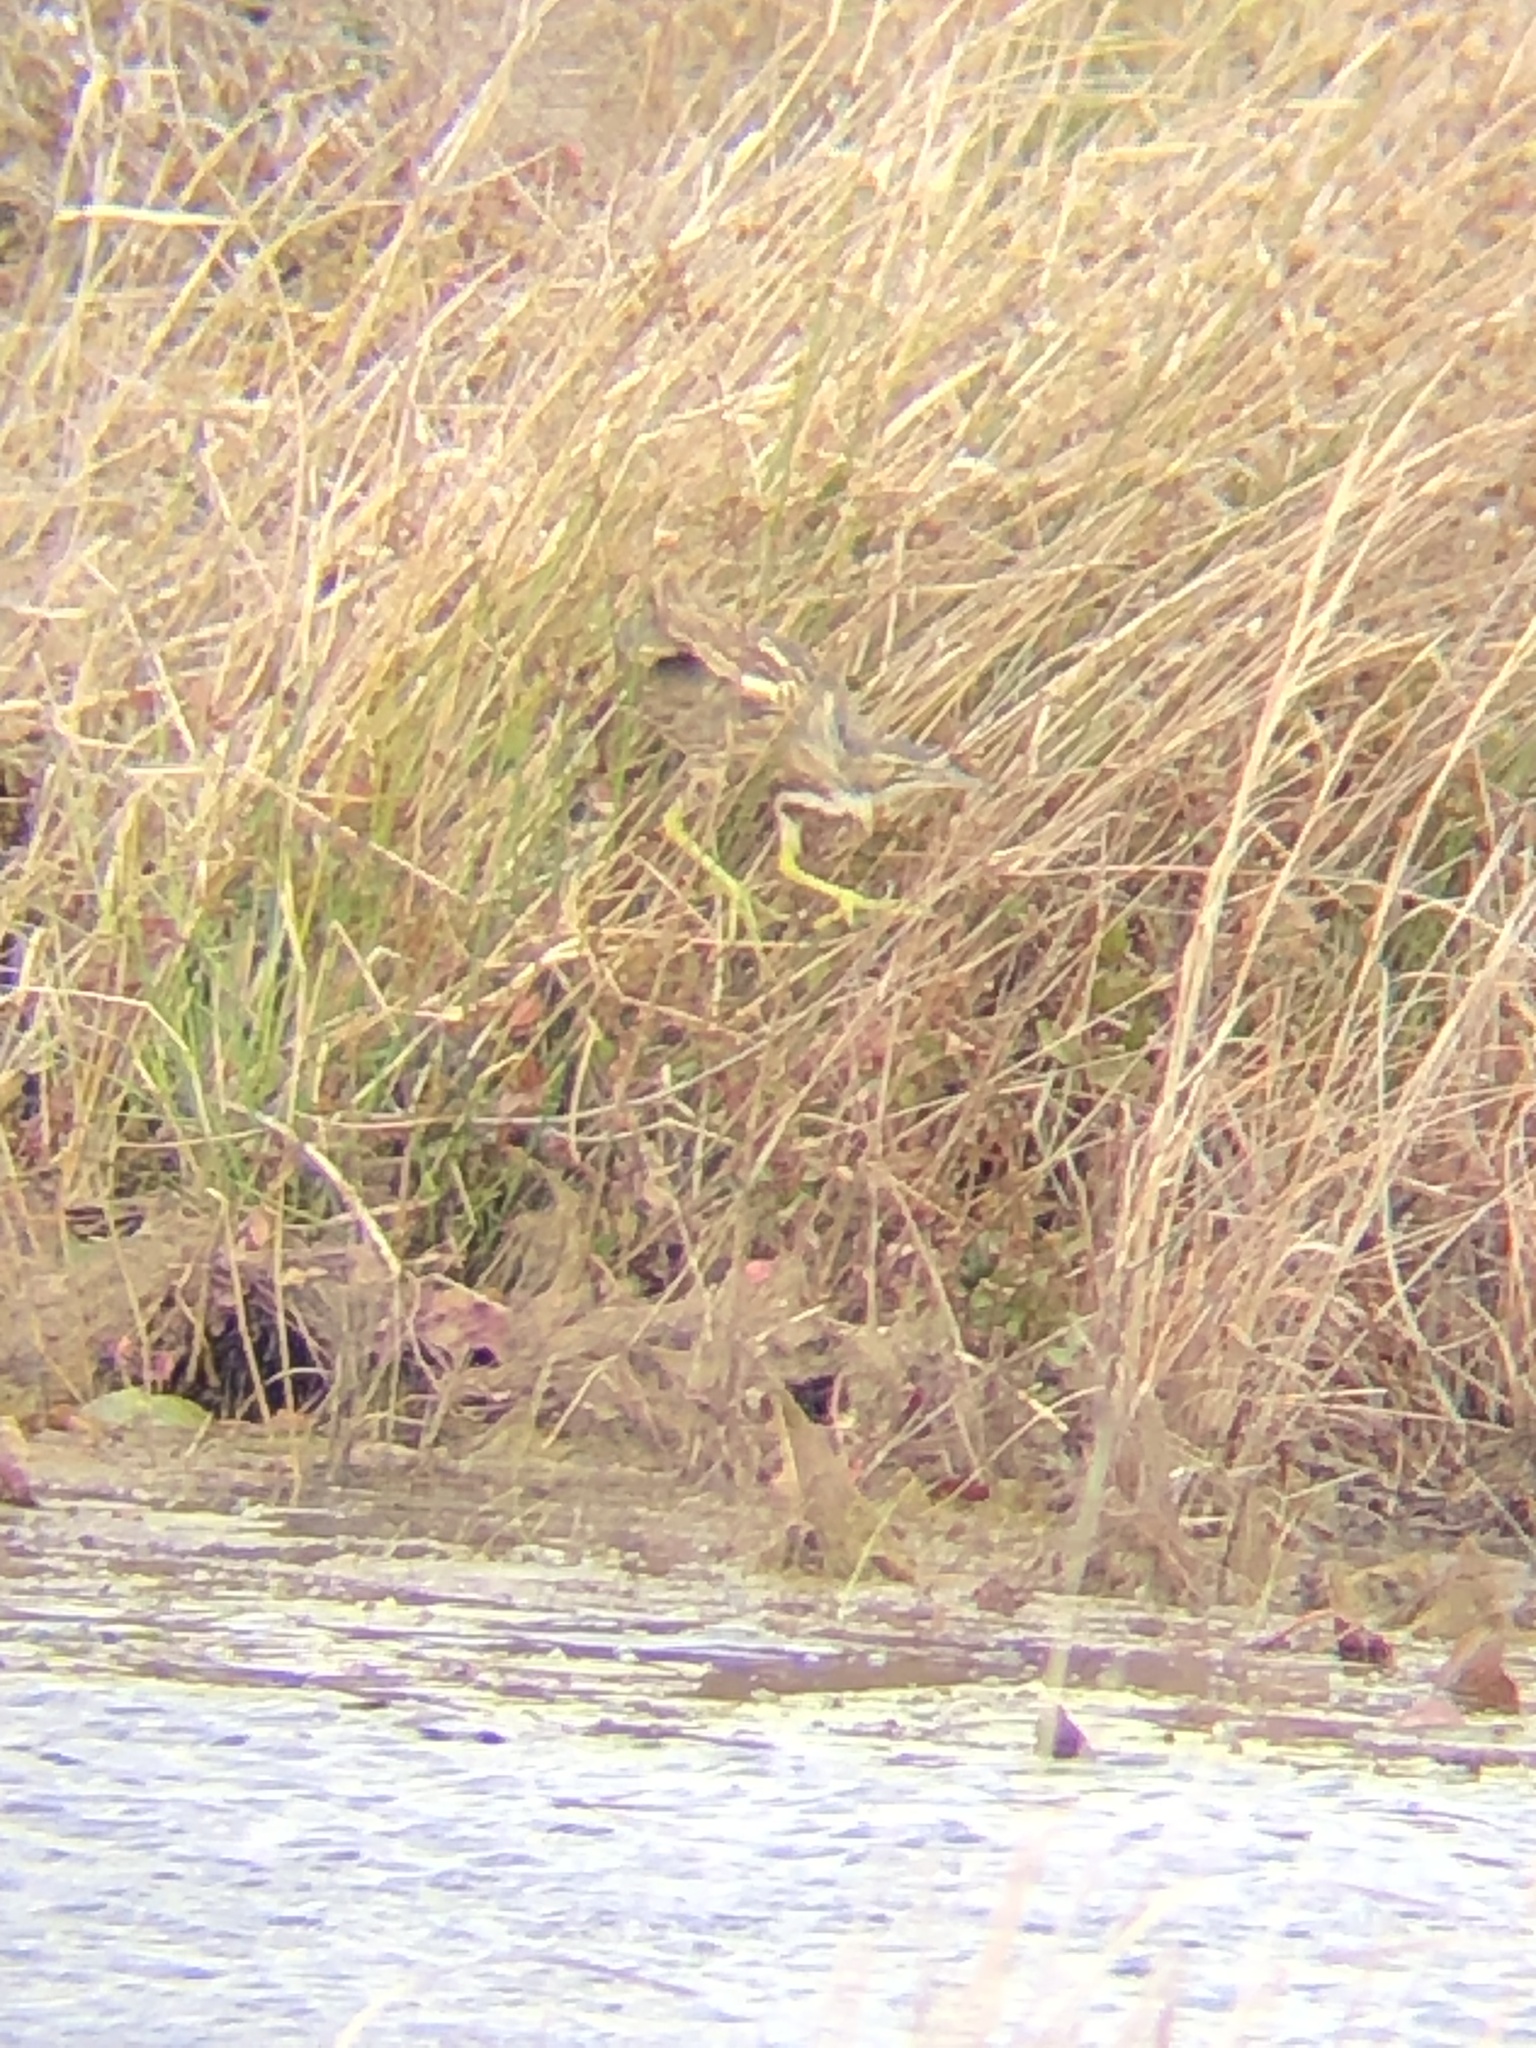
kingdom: Animalia
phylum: Chordata
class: Aves
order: Pelecaniformes
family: Ardeidae
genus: Botaurus
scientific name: Botaurus lentiginosus
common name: American bittern
